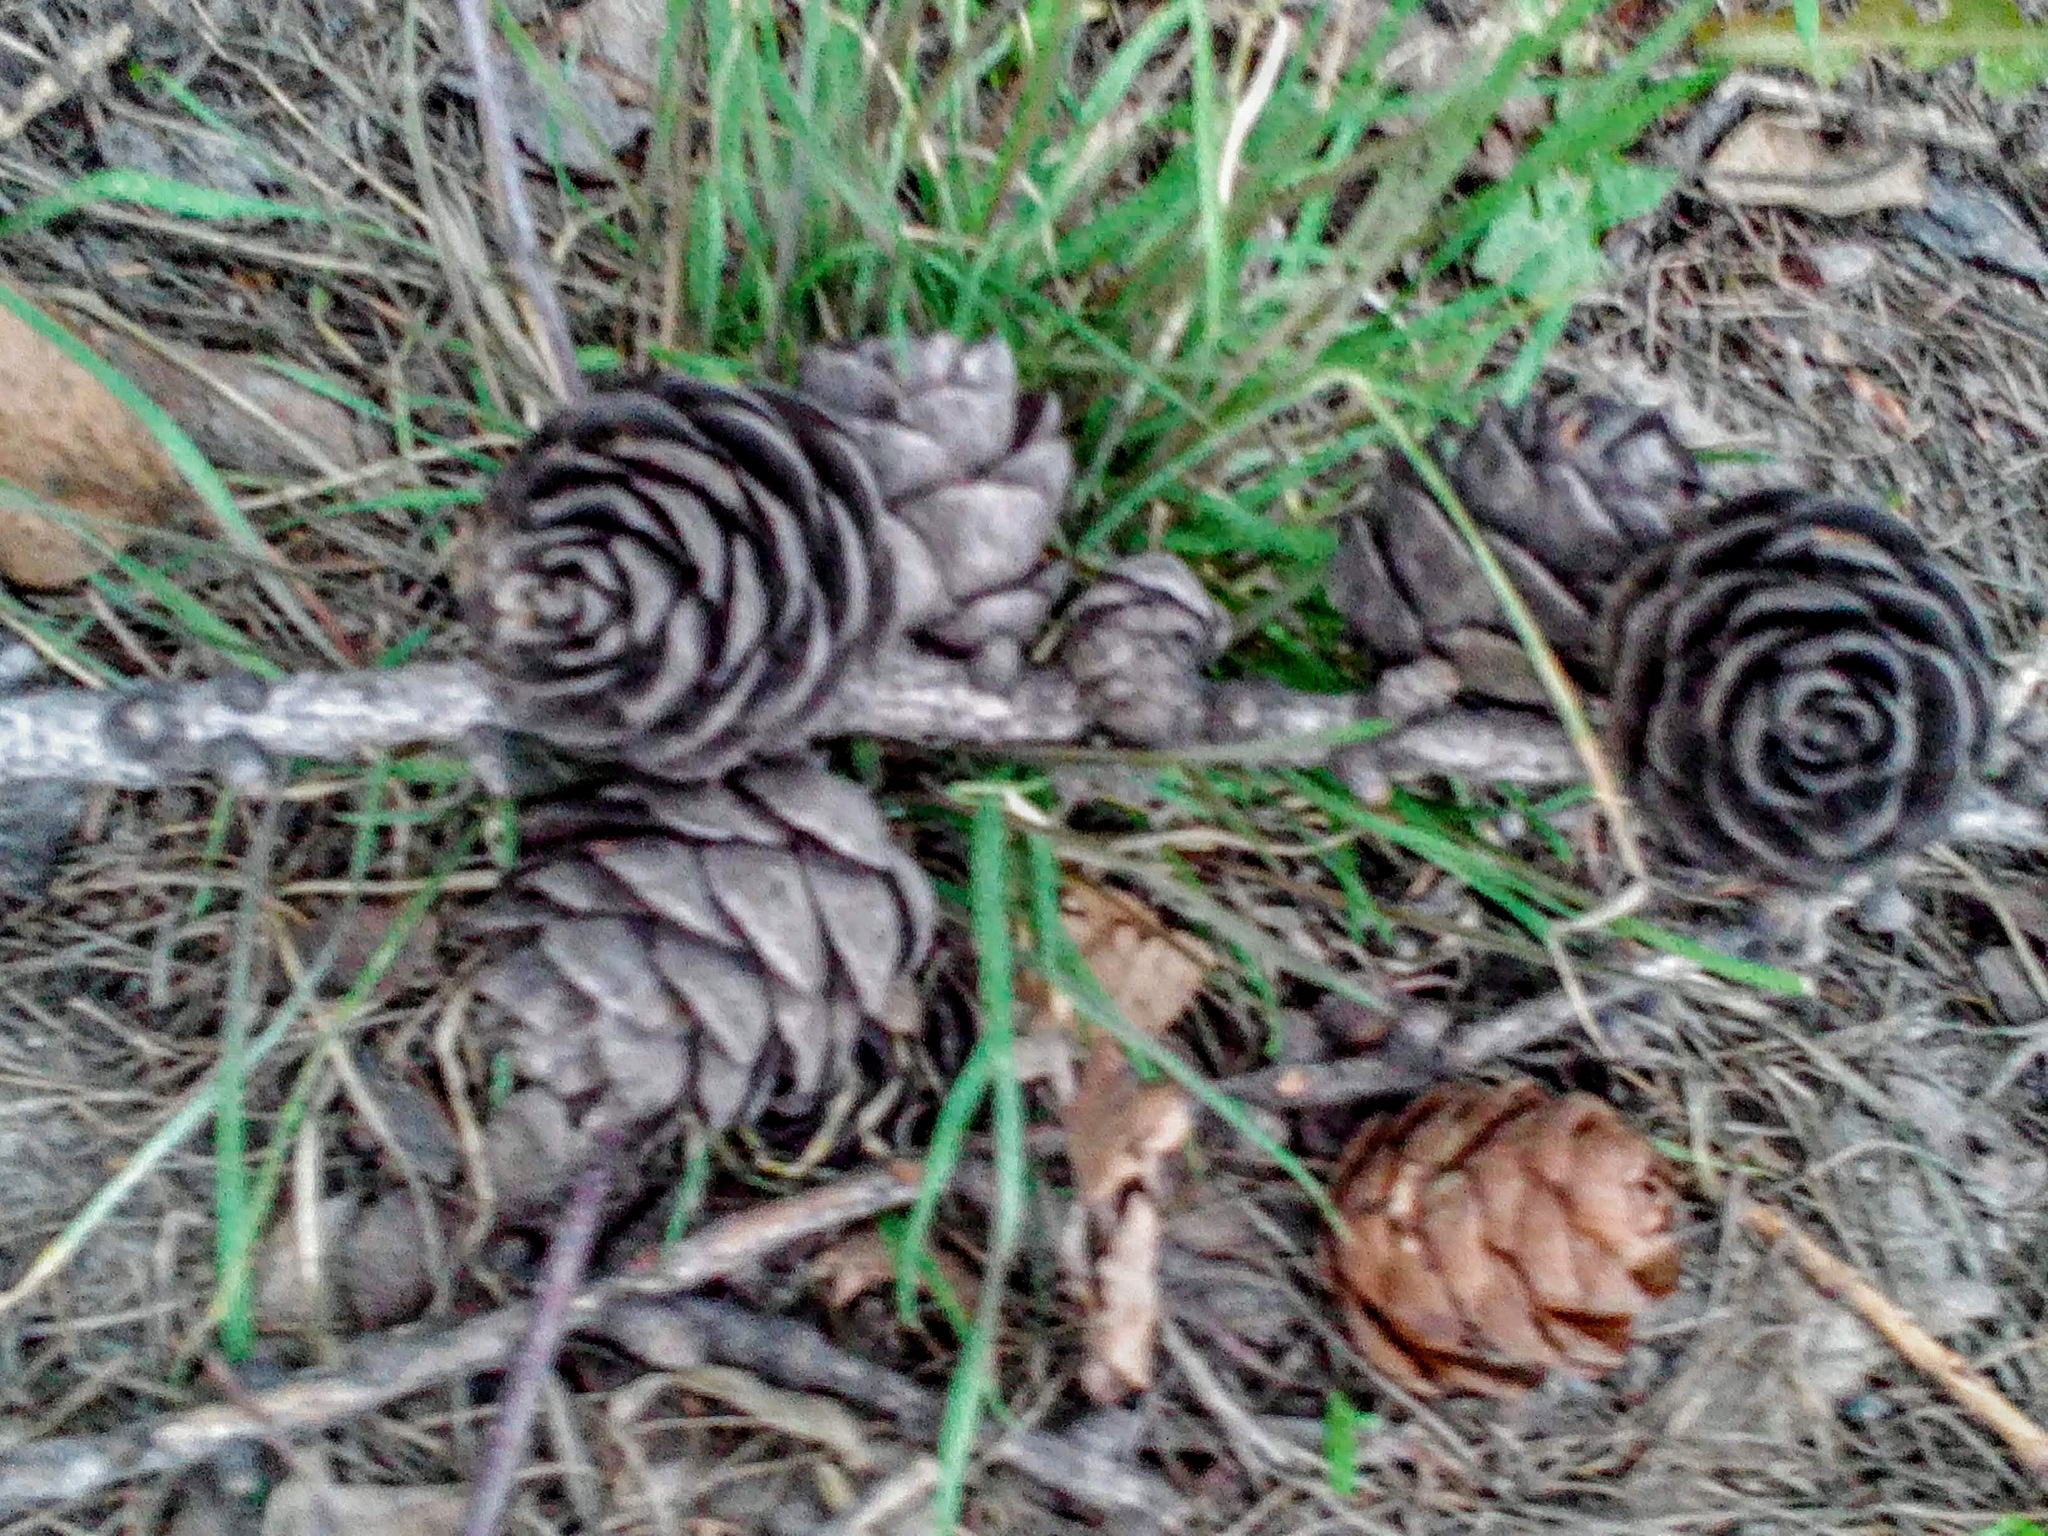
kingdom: Plantae
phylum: Tracheophyta
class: Pinopsida
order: Pinales
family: Pinaceae
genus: Larix
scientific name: Larix sibirica
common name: Siberian larch
